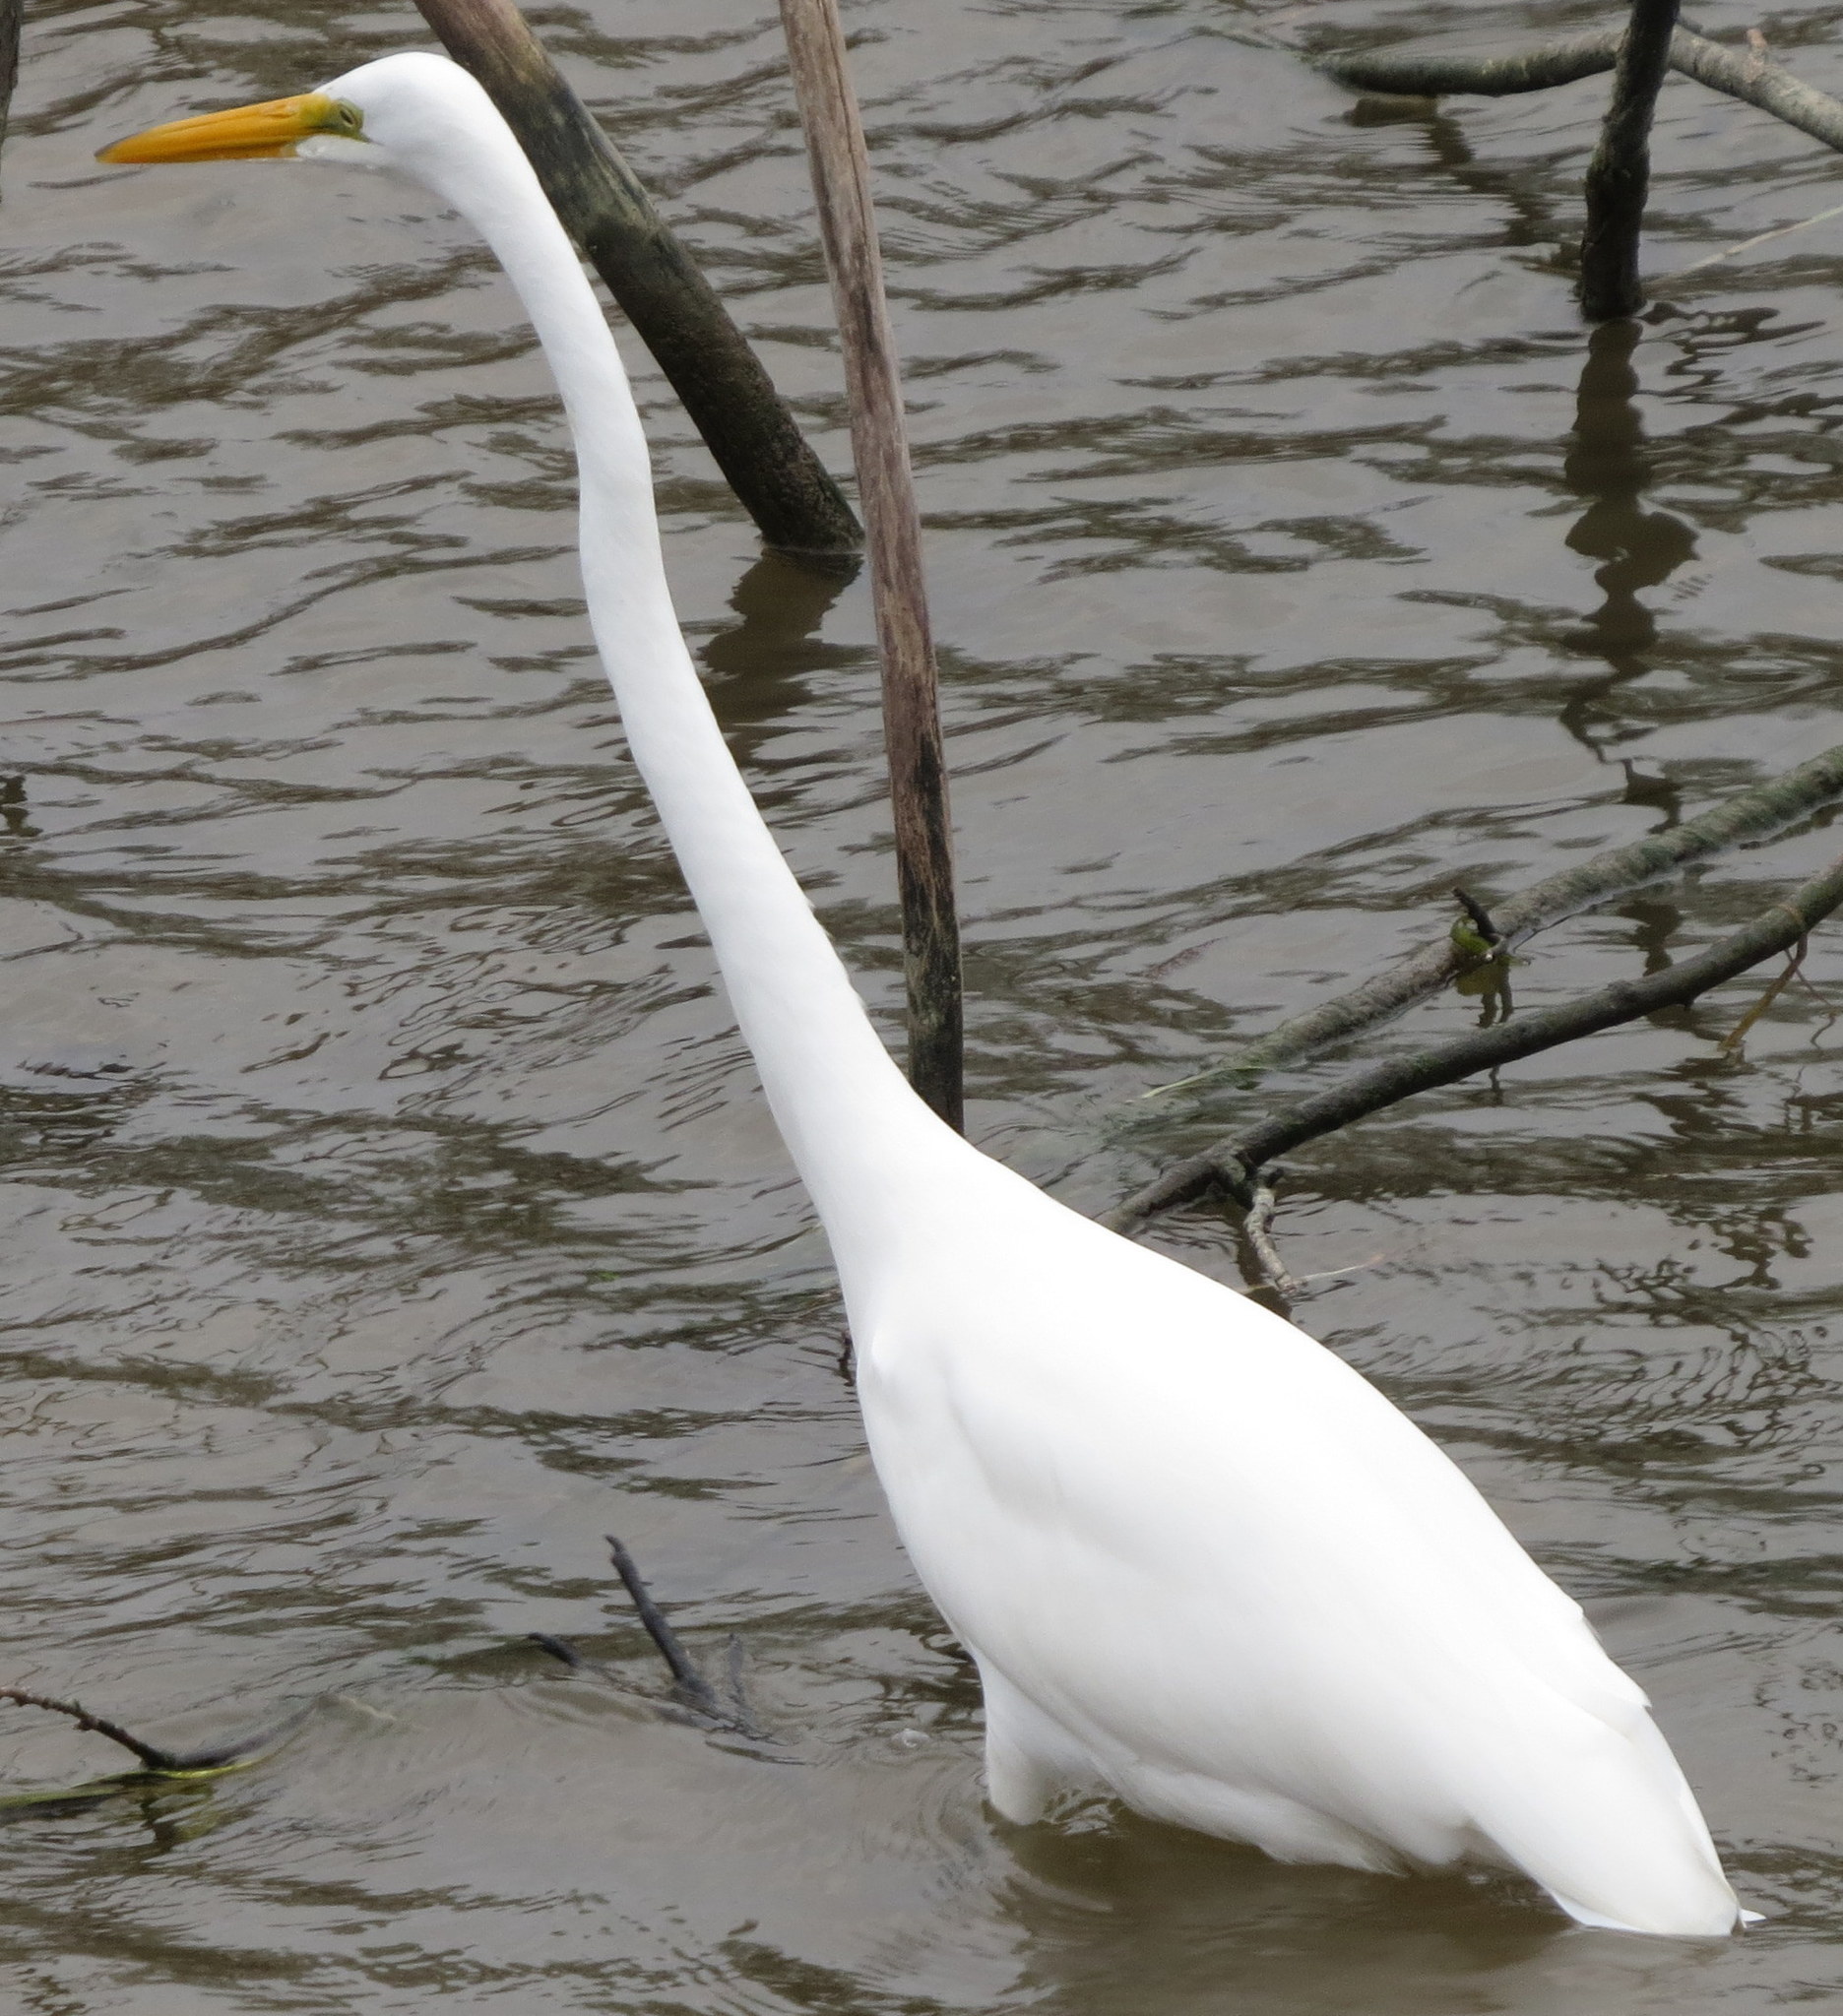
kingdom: Animalia
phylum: Chordata
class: Aves
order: Pelecaniformes
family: Ardeidae
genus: Ardea
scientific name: Ardea alba
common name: Great egret
